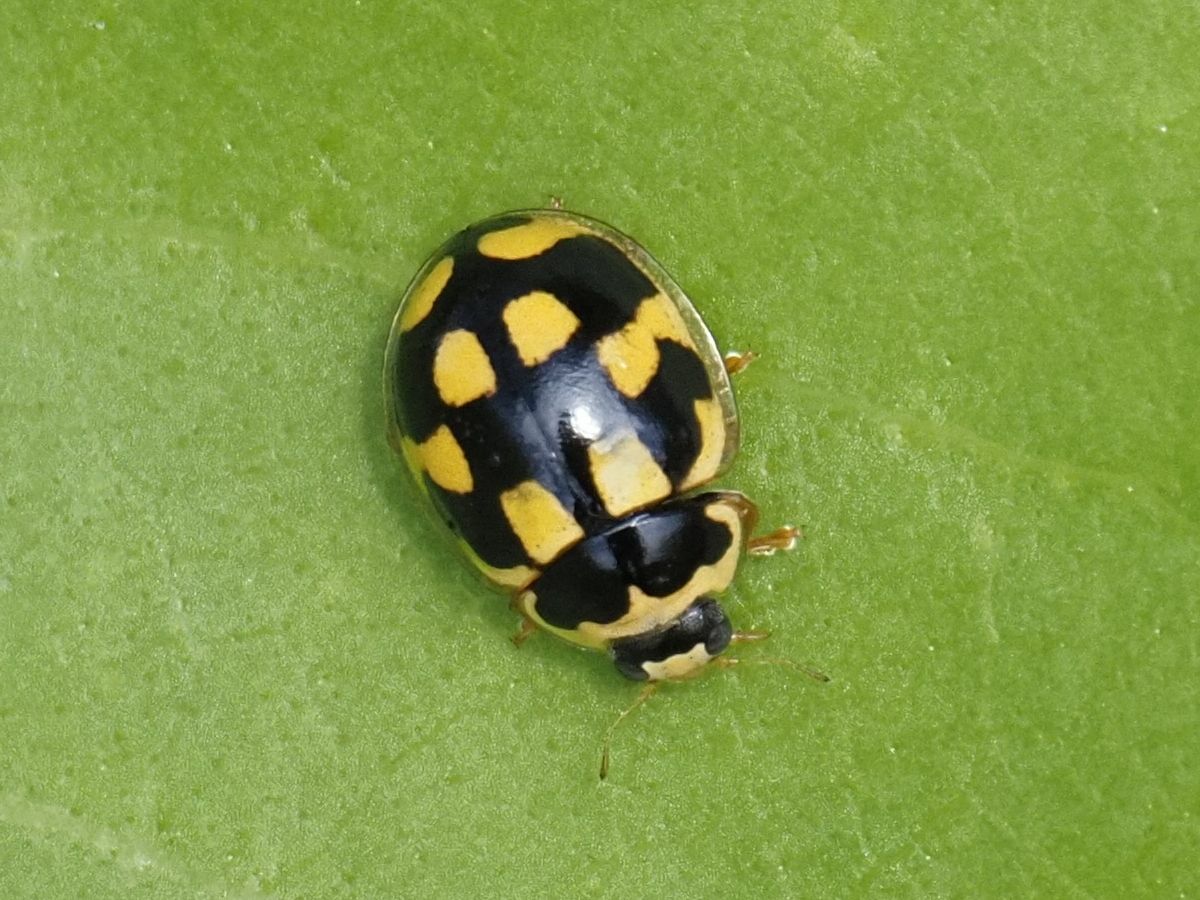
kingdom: Animalia
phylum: Arthropoda
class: Insecta
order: Coleoptera
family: Coccinellidae
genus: Propylaea
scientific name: Propylaea quatuordecimpunctata
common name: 14-spotted ladybird beetle
